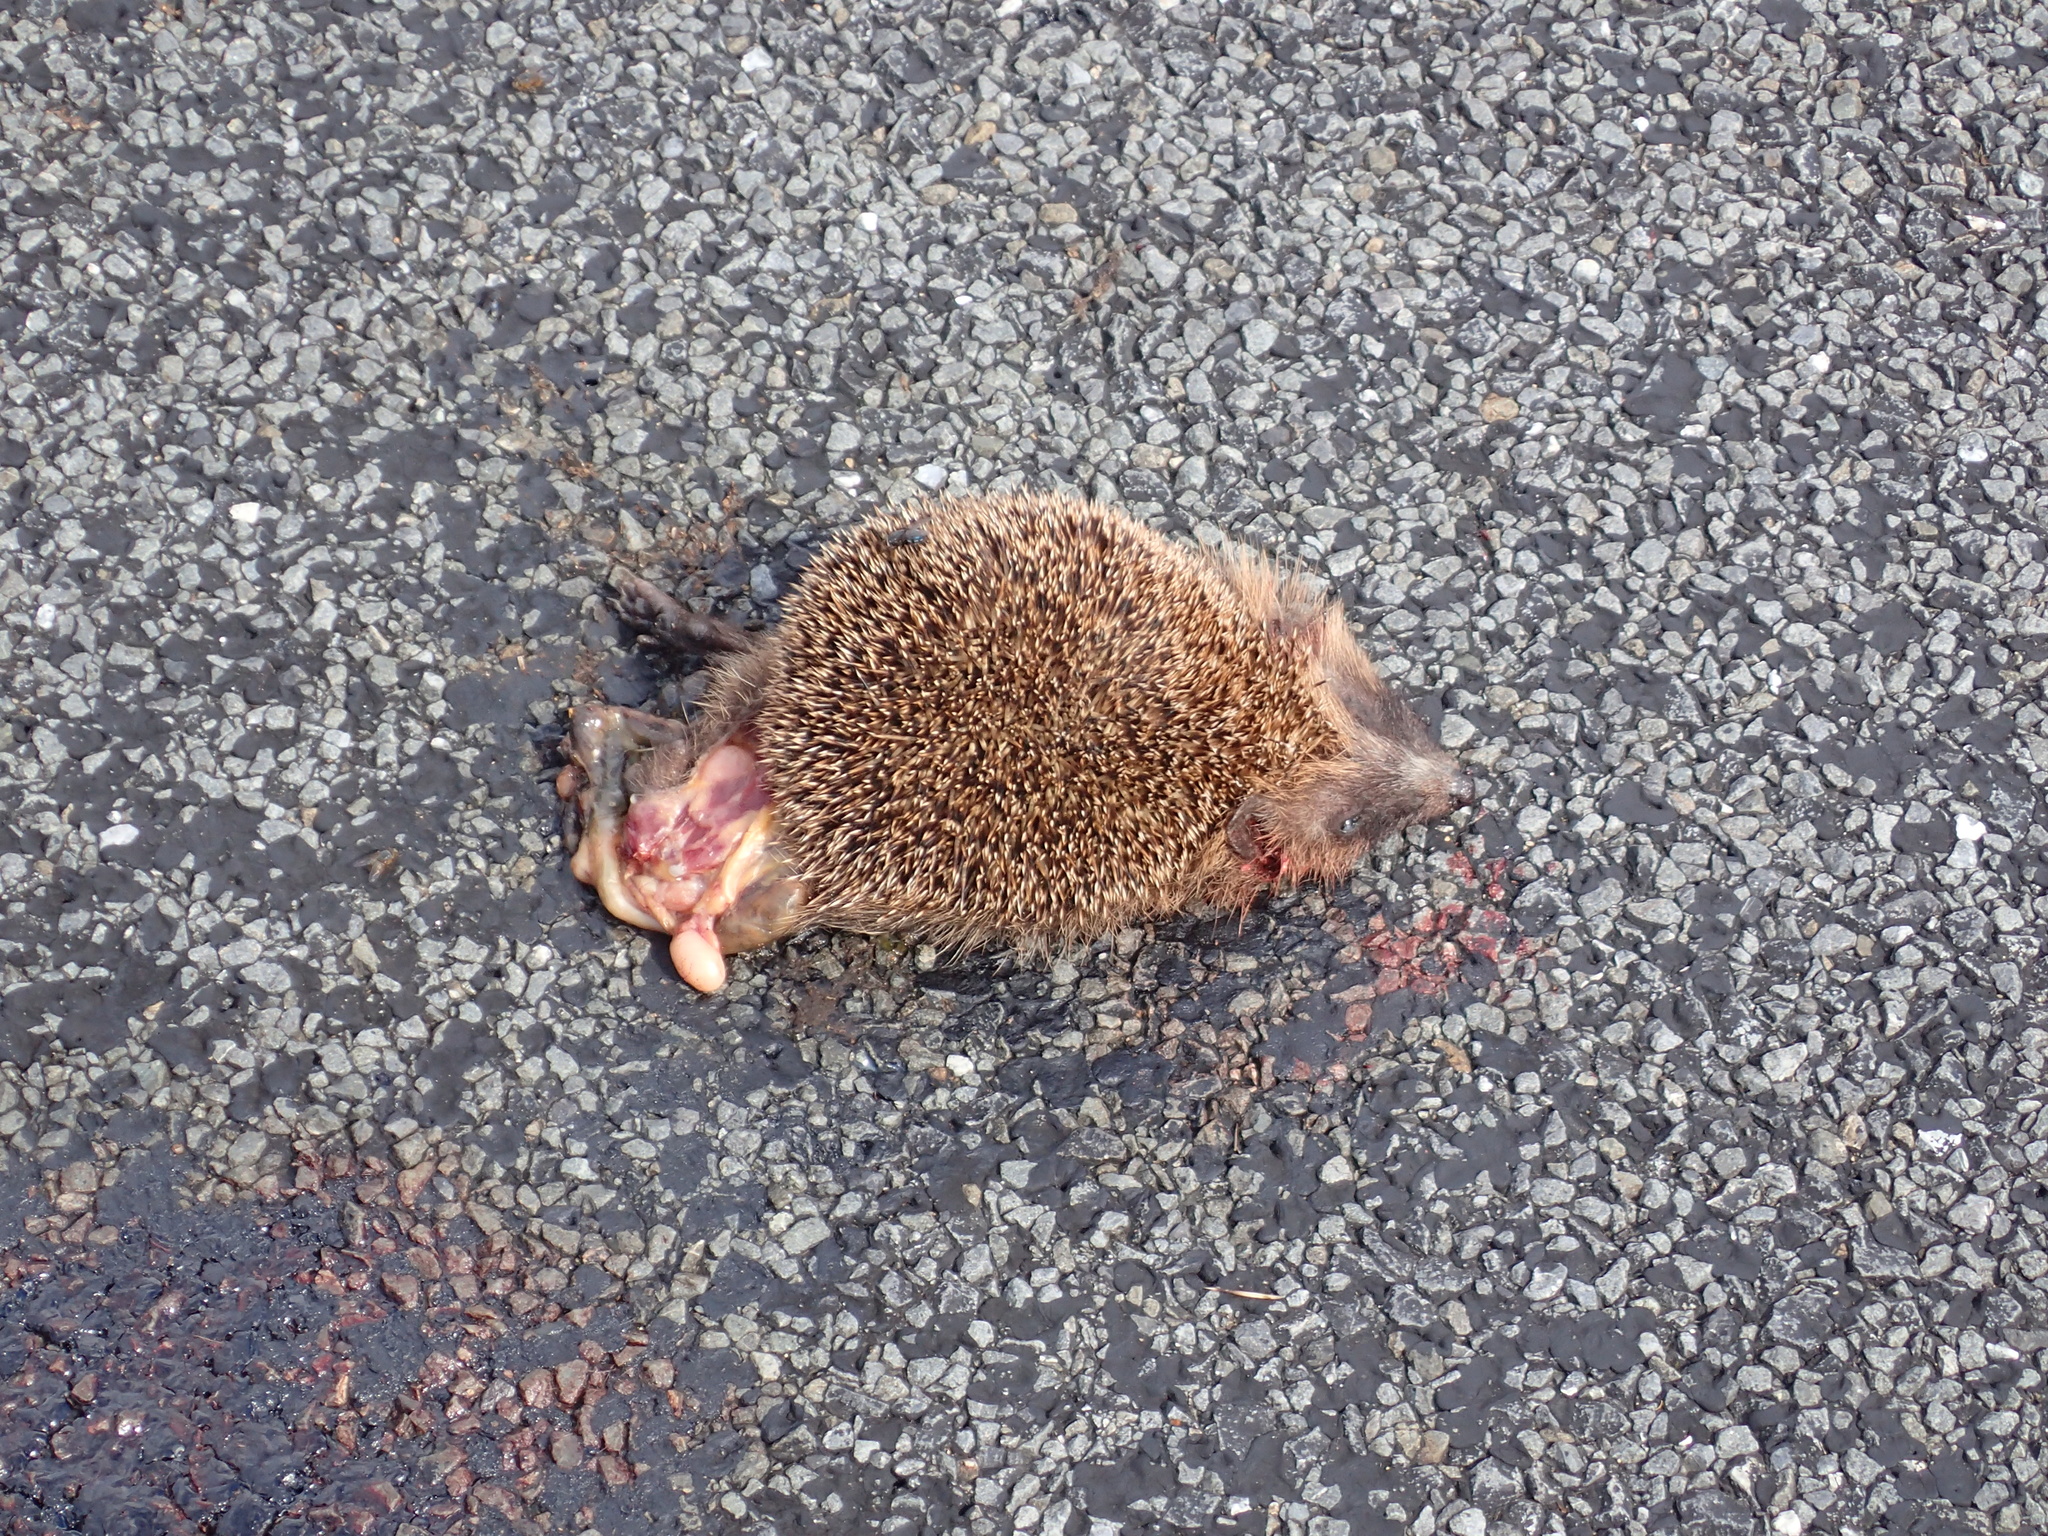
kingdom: Animalia
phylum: Chordata
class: Mammalia
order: Erinaceomorpha
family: Erinaceidae
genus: Erinaceus
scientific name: Erinaceus europaeus
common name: West european hedgehog
